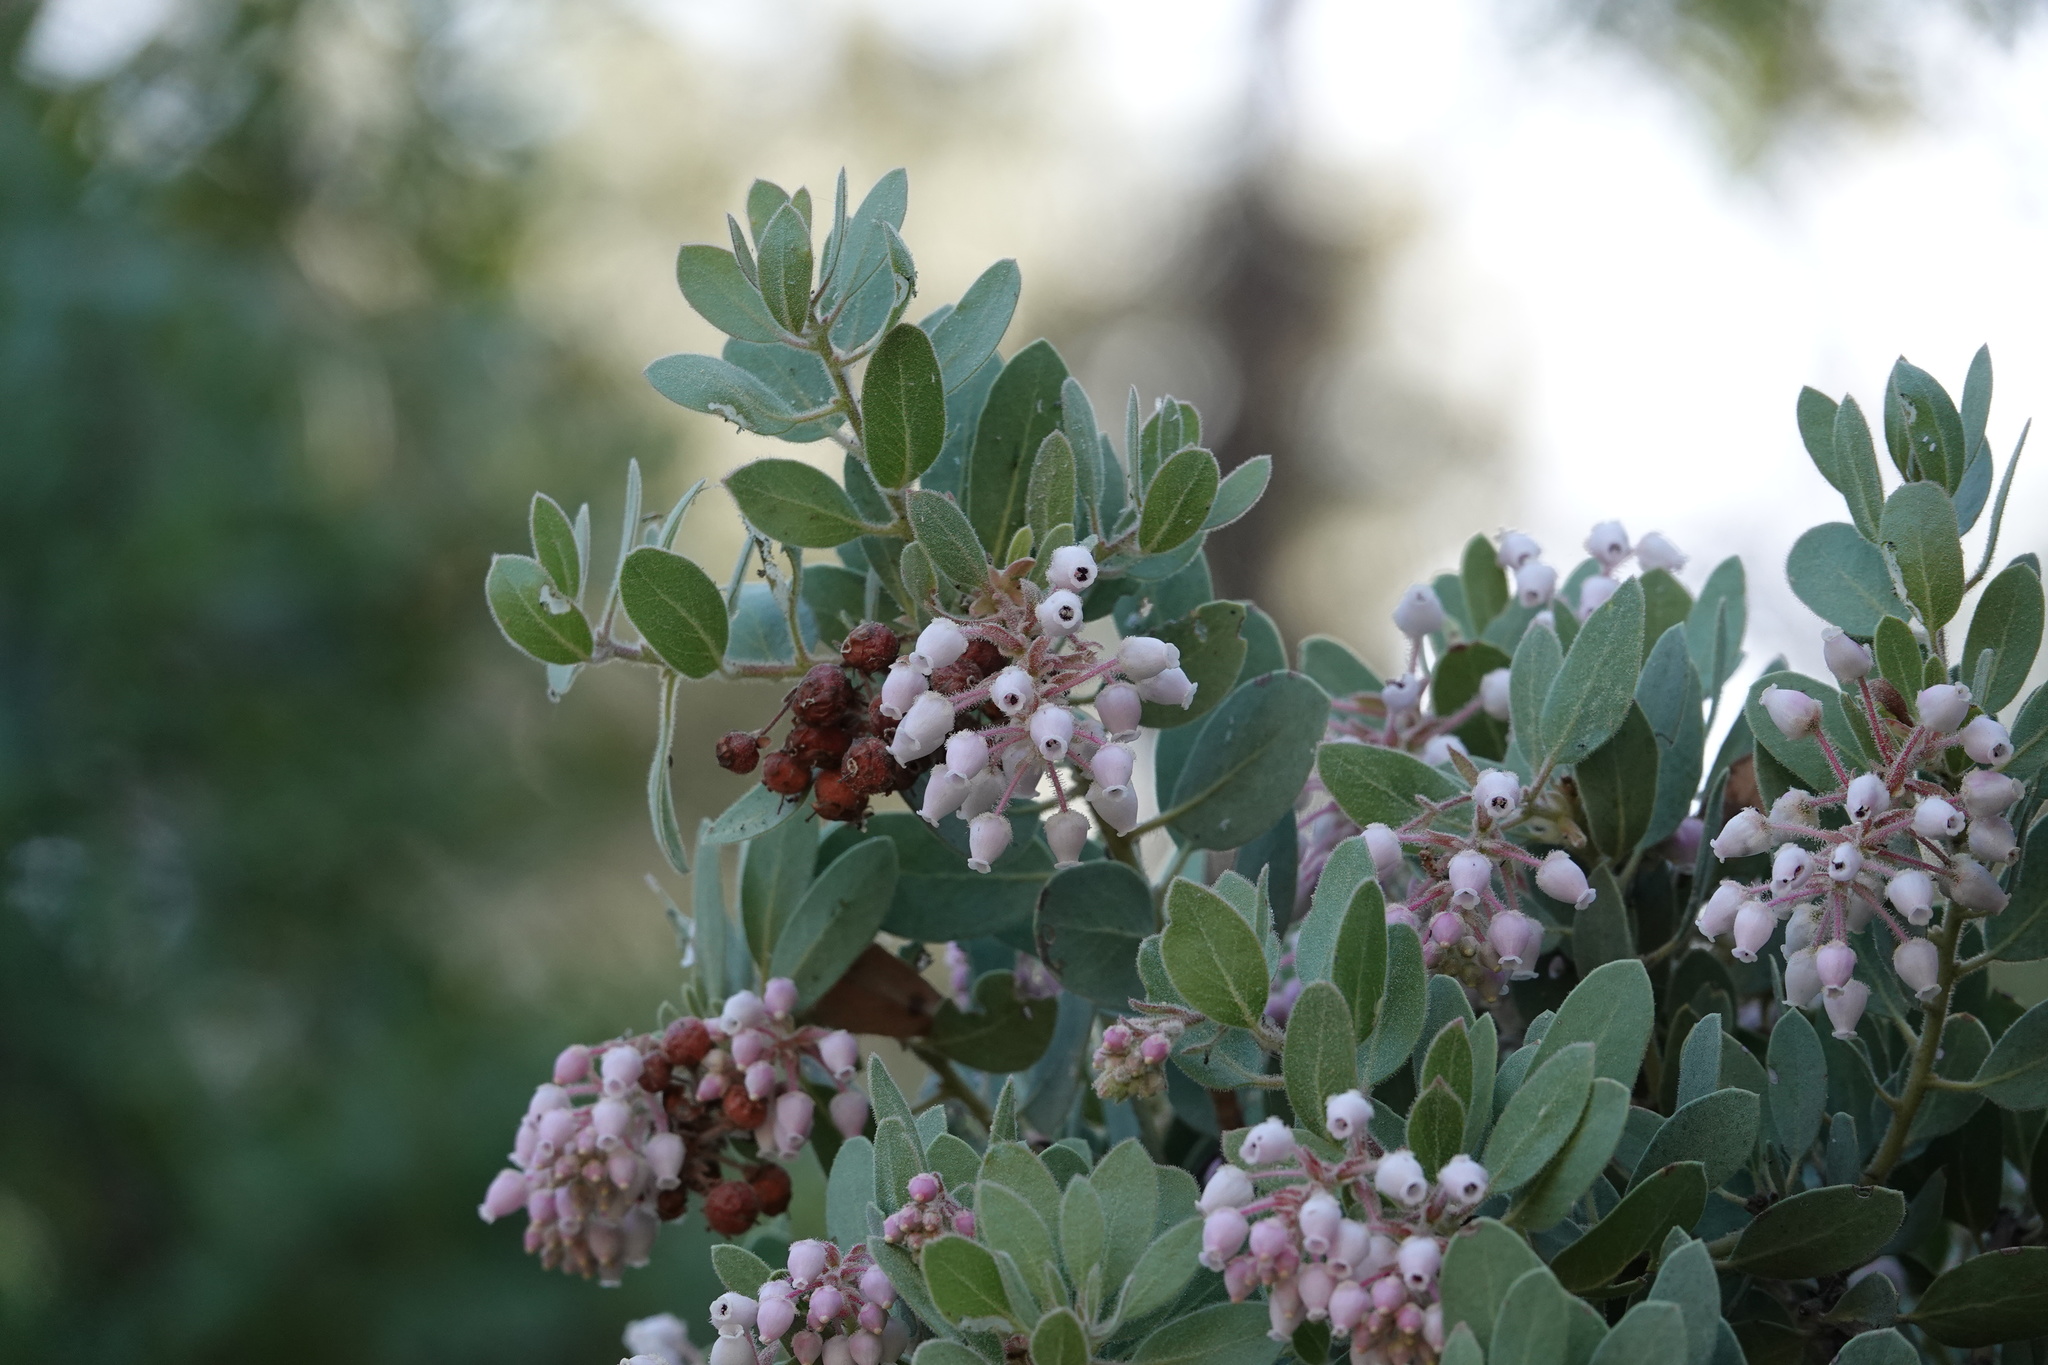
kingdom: Plantae
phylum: Tracheophyta
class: Magnoliopsida
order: Ericales
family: Ericaceae
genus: Arctostaphylos
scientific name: Arctostaphylos pringlei
